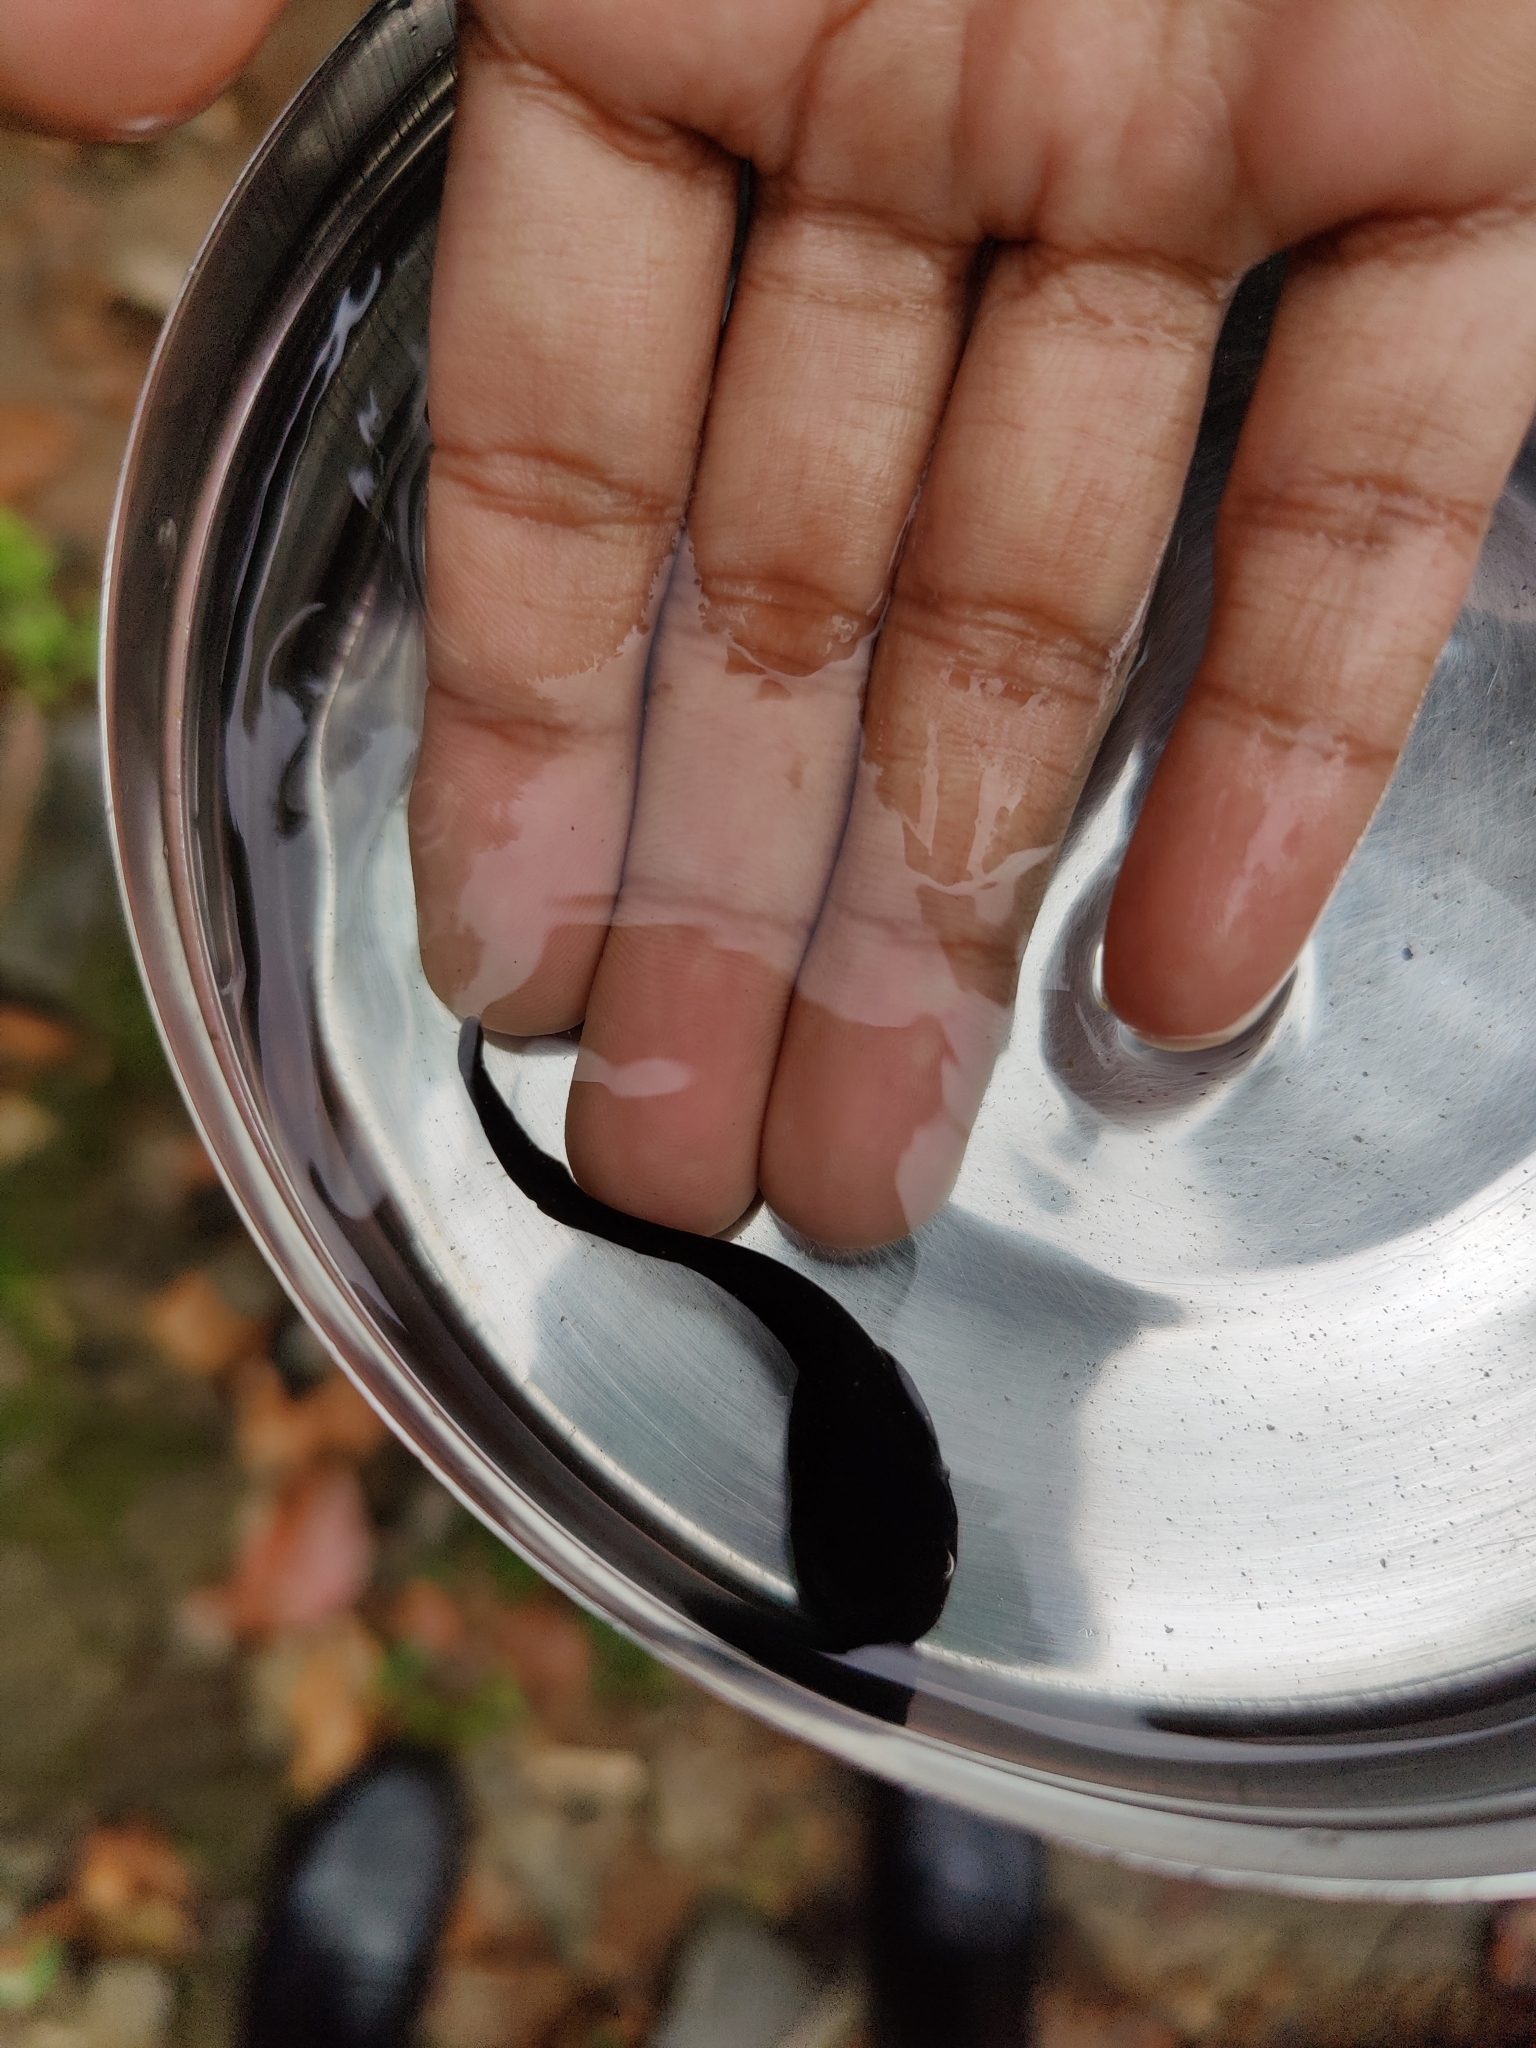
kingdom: Animalia
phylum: Chordata
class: Amphibia
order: Anura
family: Ranidae
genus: Clinotarsus
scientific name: Clinotarsus curtipes
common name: Bicoloured frog
